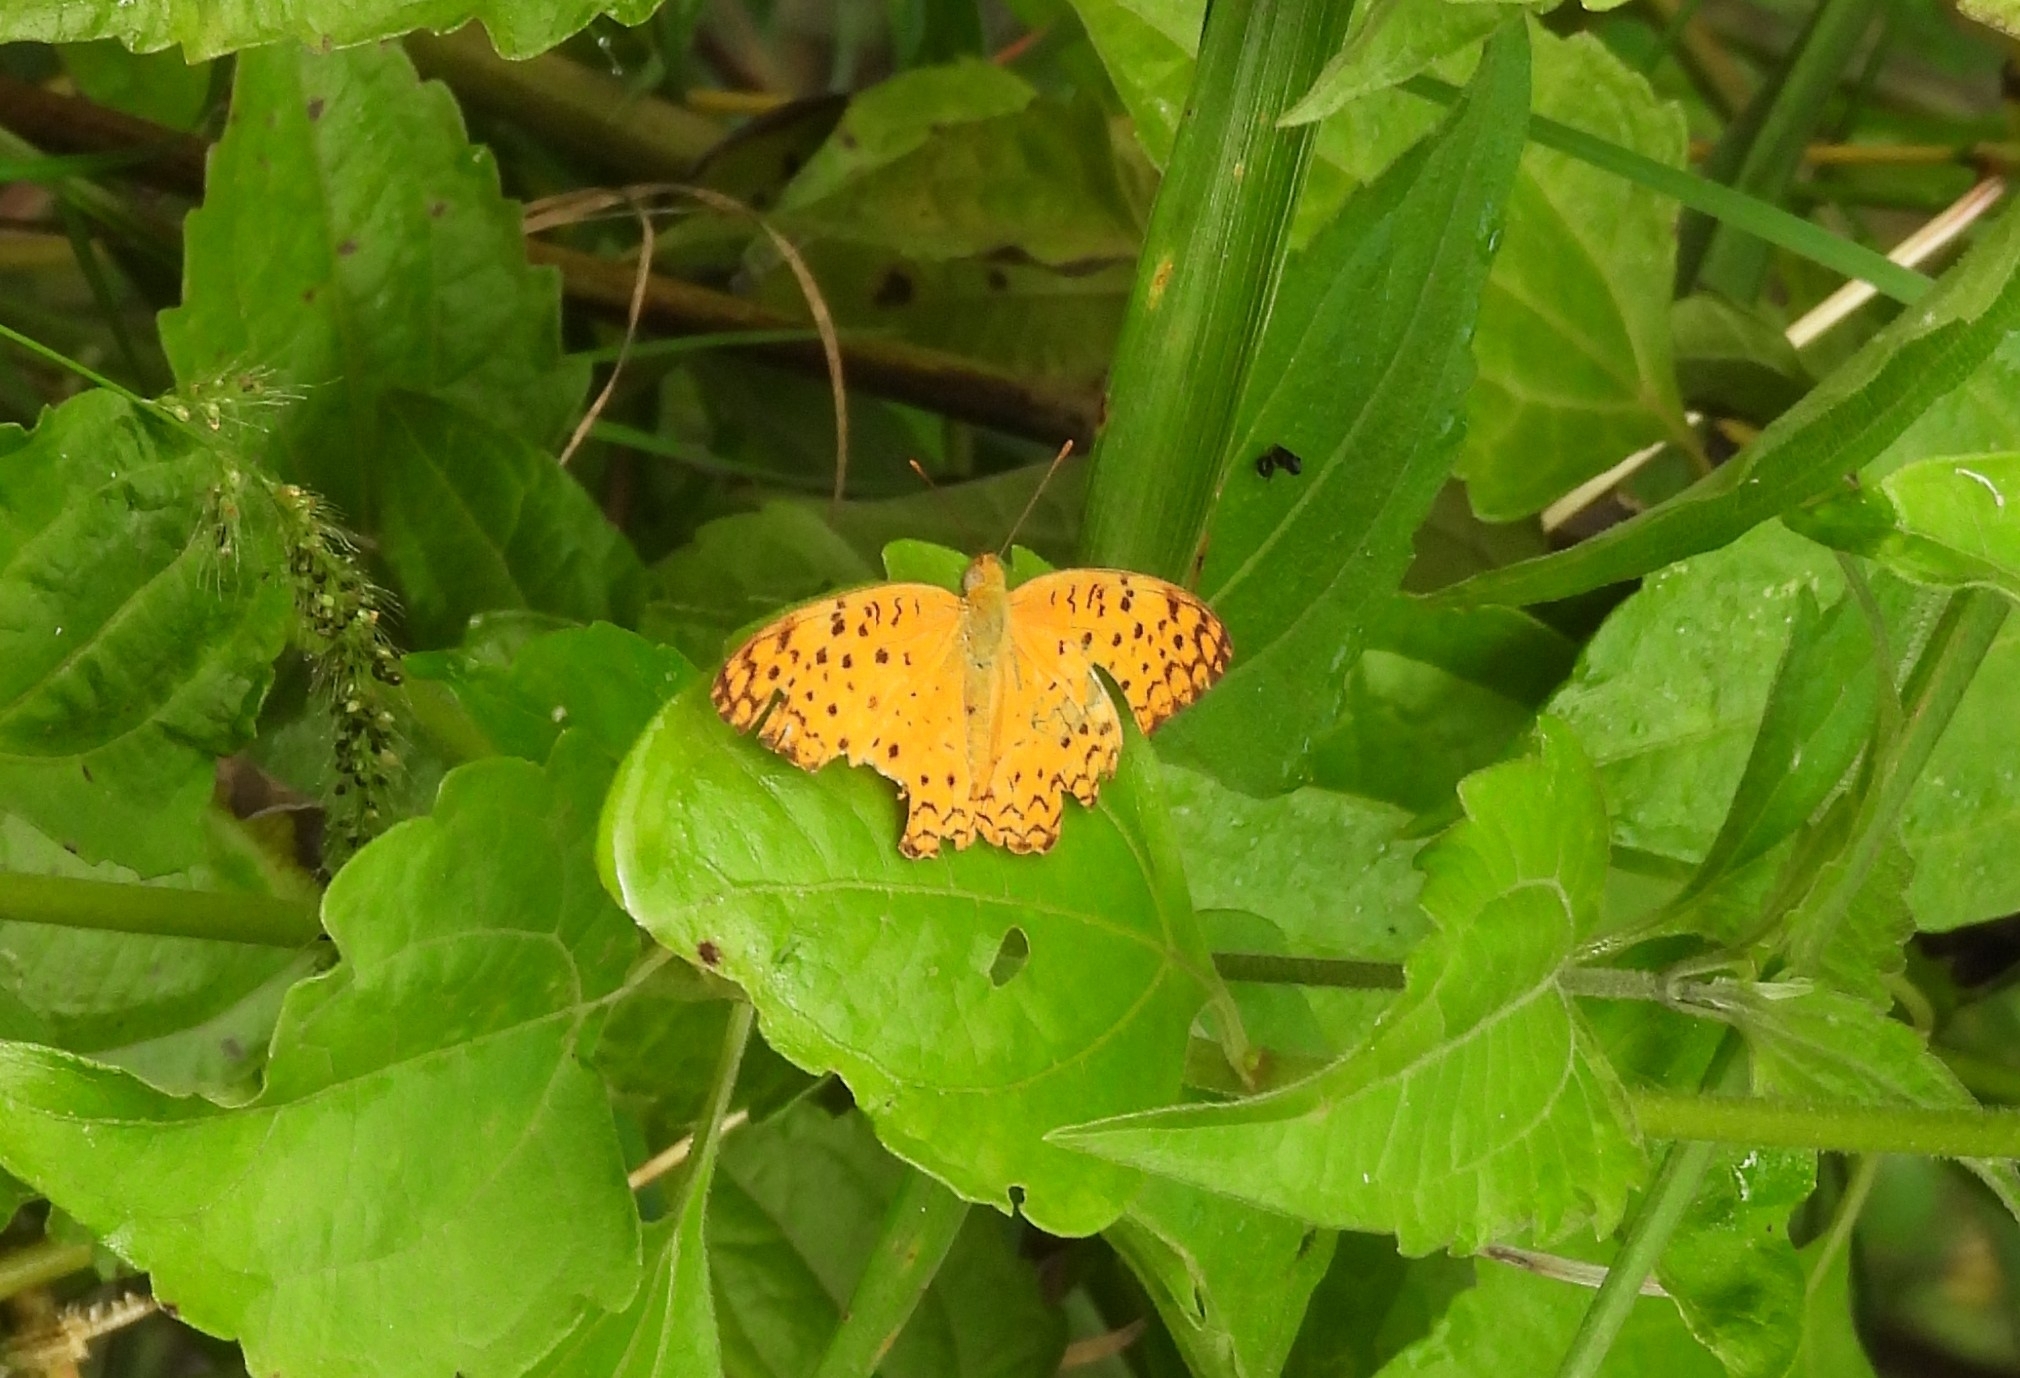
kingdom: Animalia
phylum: Arthropoda
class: Insecta
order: Lepidoptera
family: Nymphalidae
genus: Phalanta
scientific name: Phalanta phalantha
